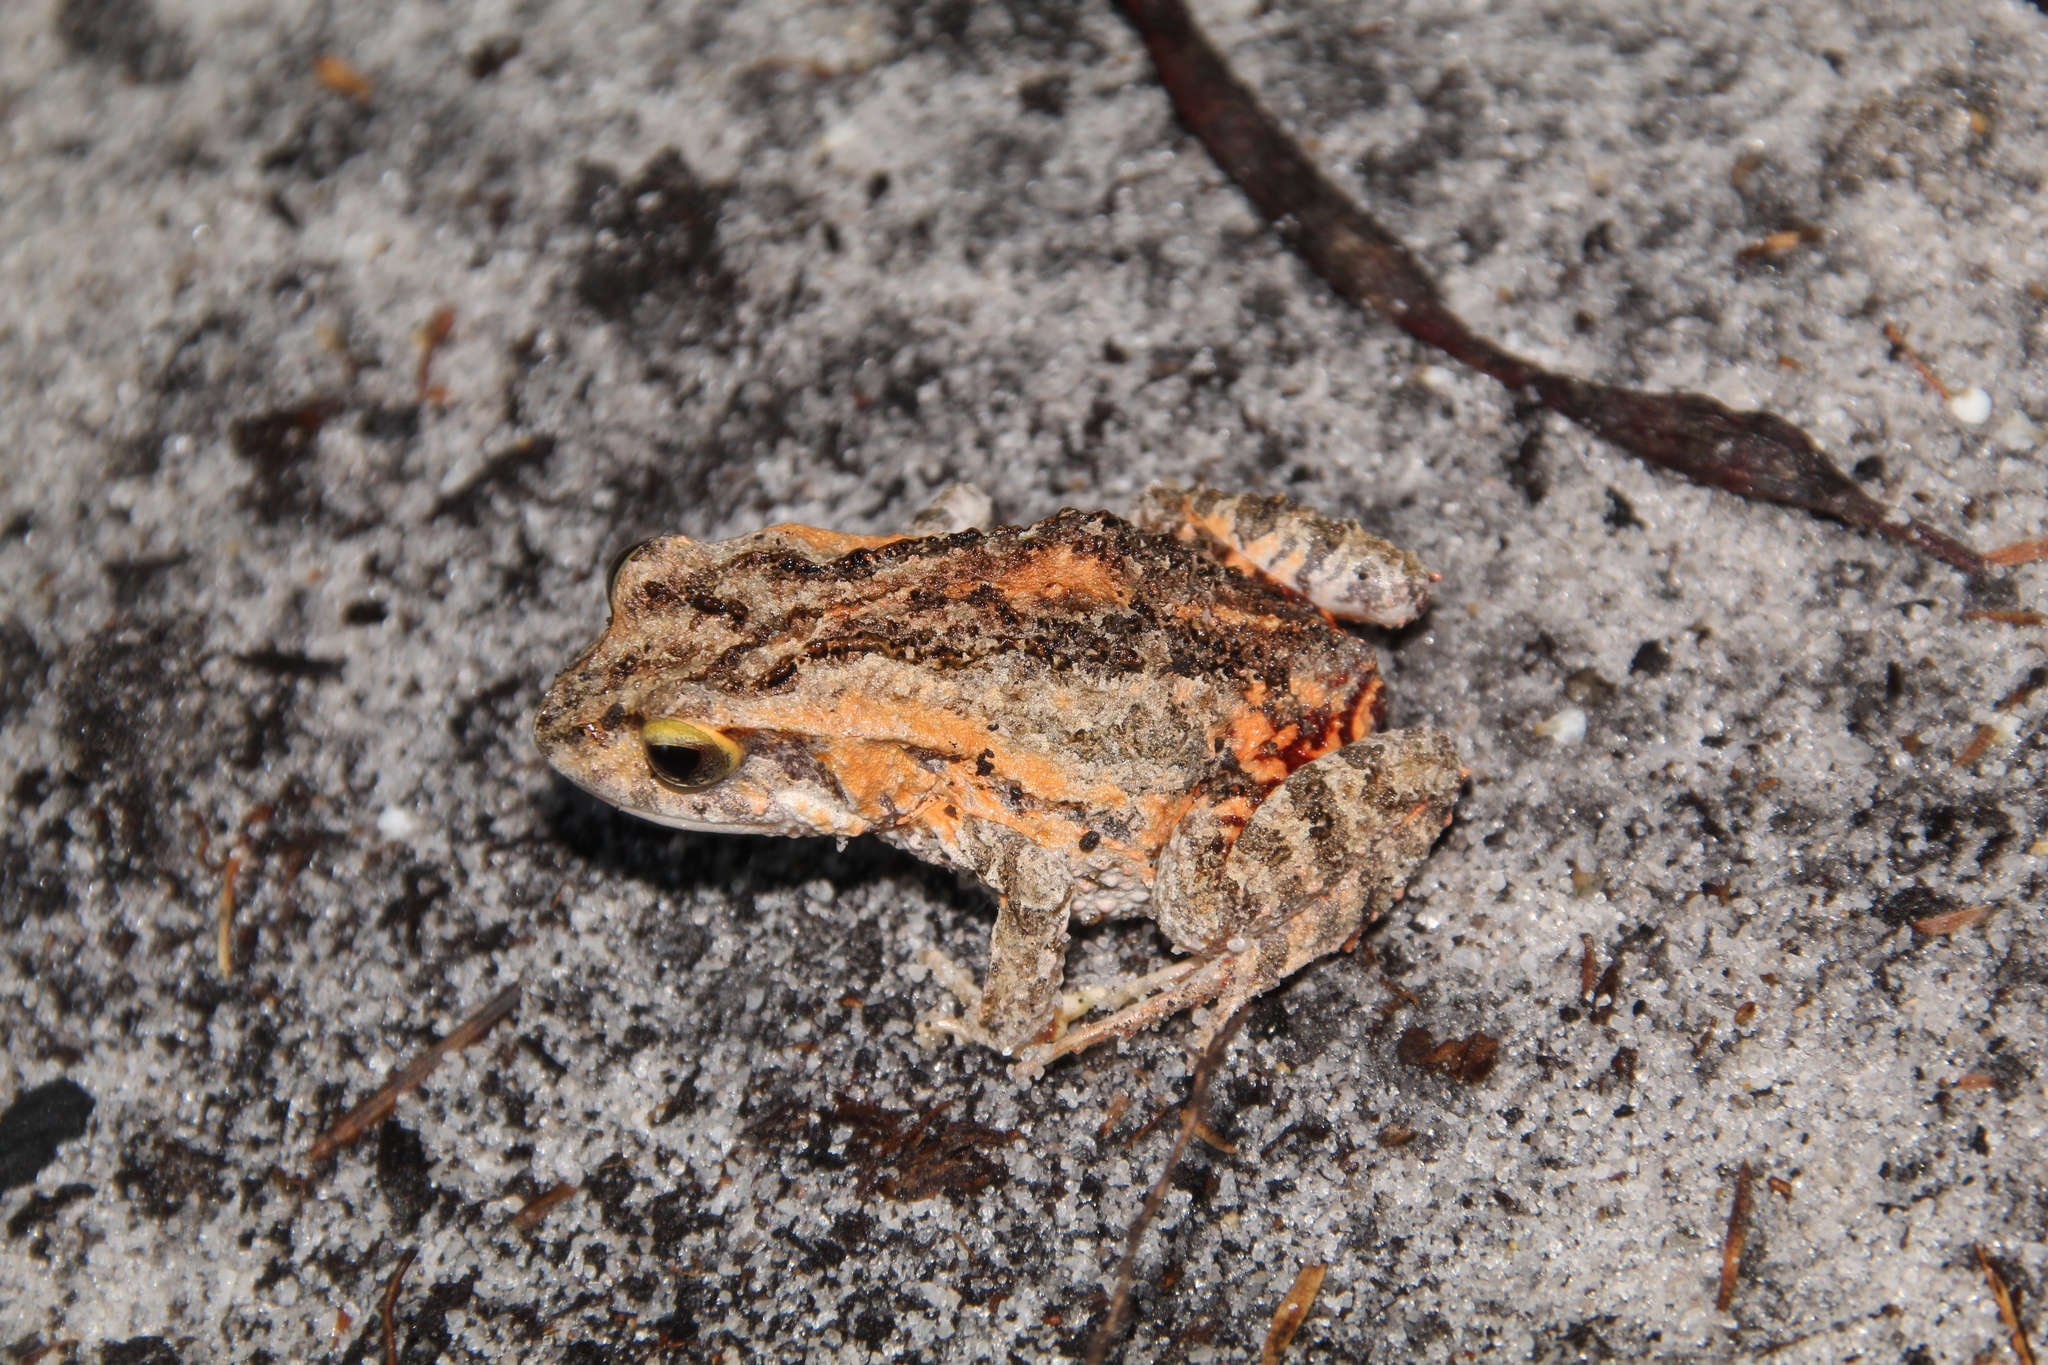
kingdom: Animalia
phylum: Chordata
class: Amphibia
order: Anura
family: Myobatrachidae
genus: Crinia
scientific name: Crinia georgiana
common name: Quacking frog
